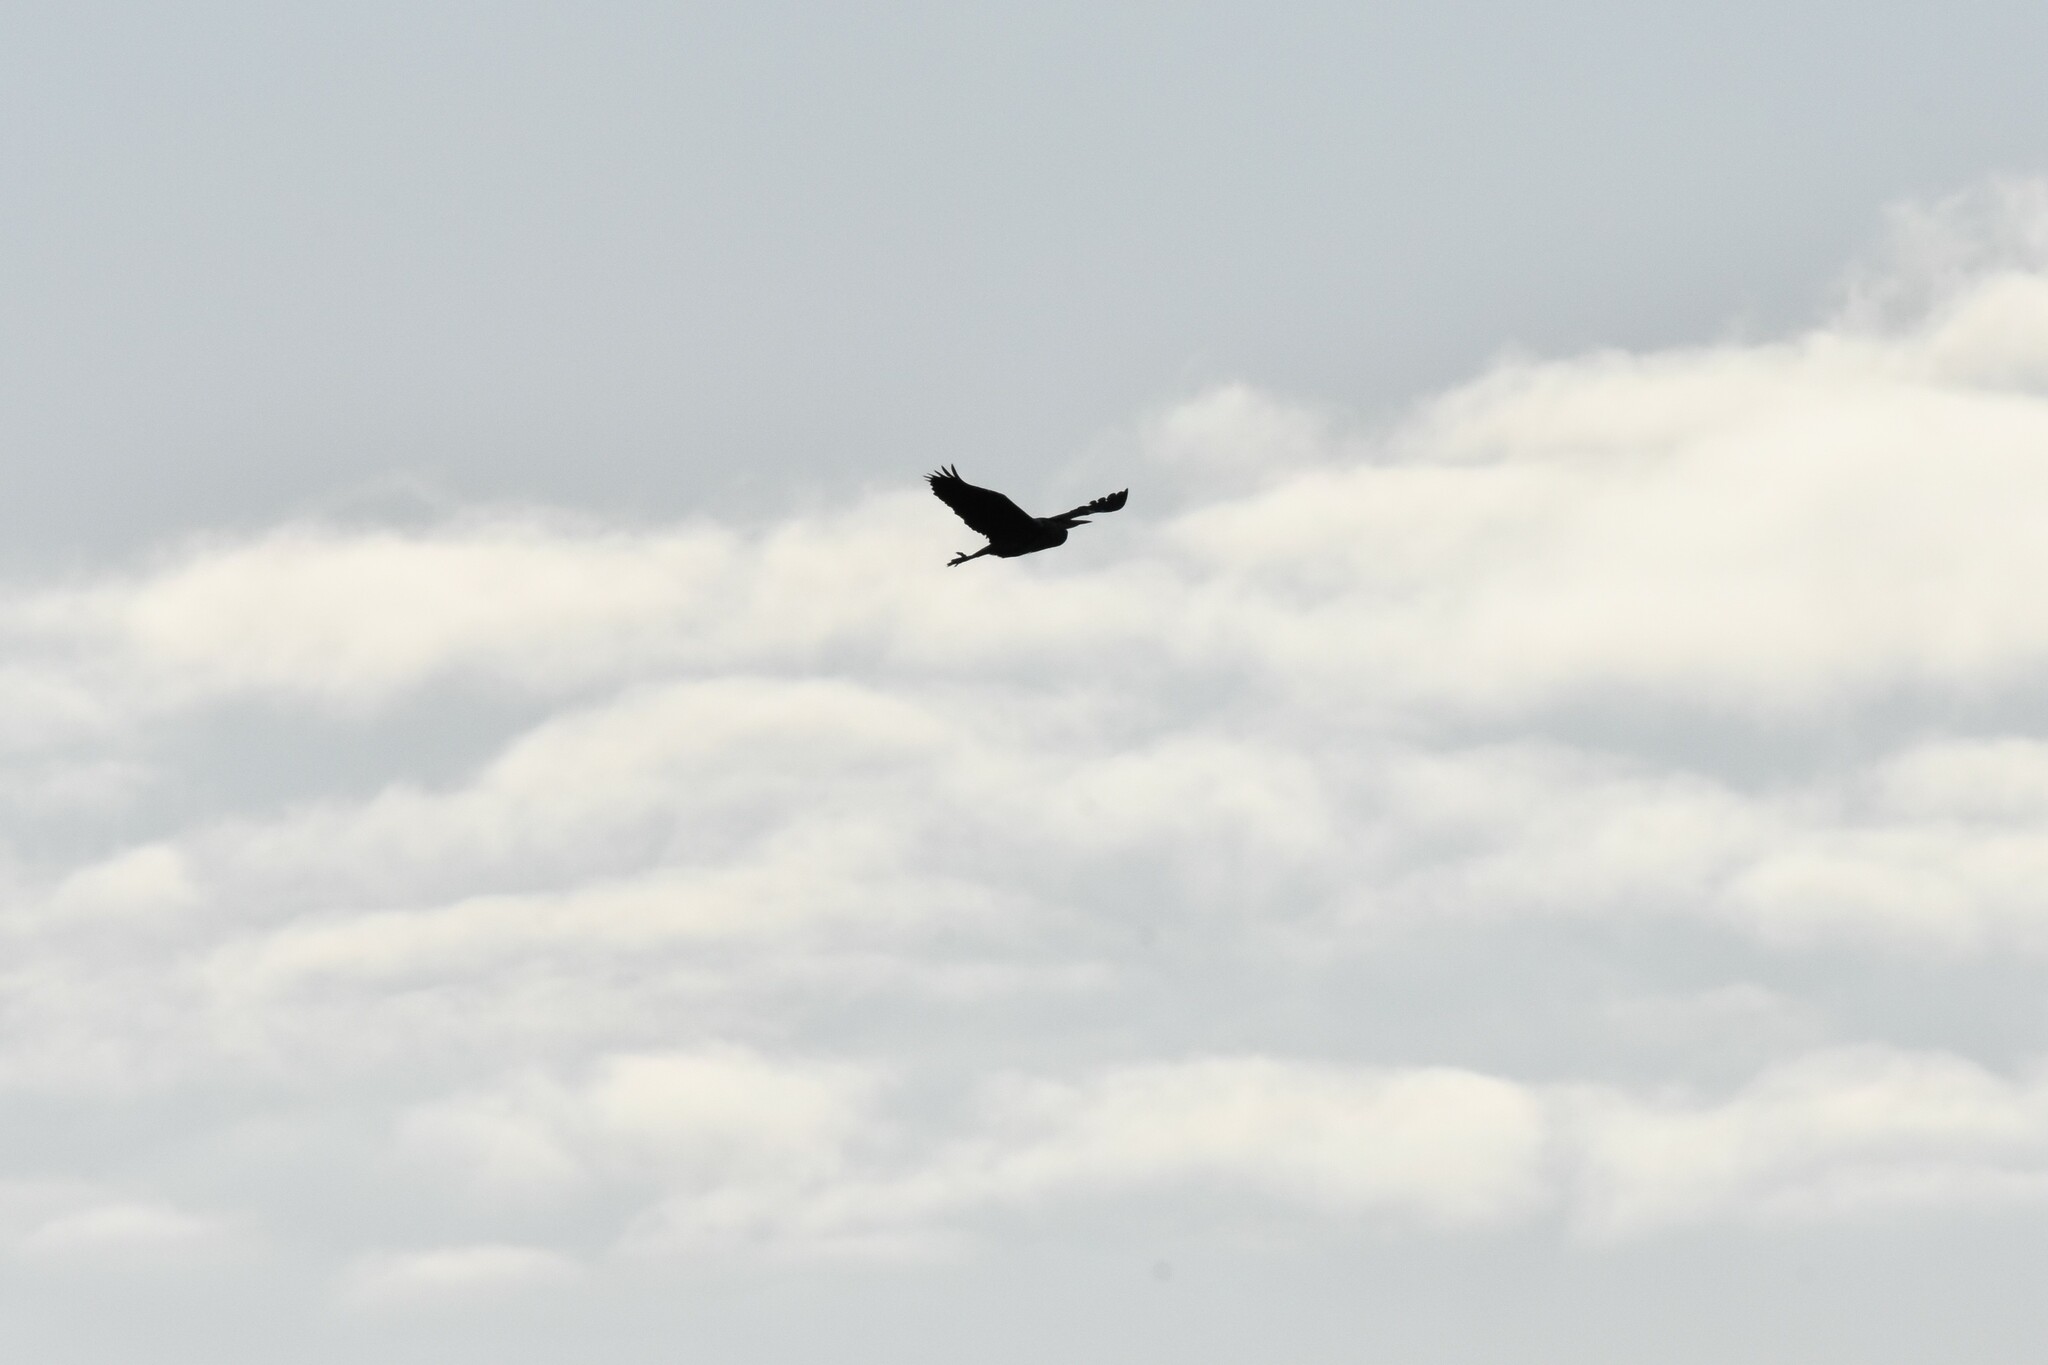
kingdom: Animalia
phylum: Chordata
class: Aves
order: Pelecaniformes
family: Ardeidae
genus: Ardea
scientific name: Ardea cinerea
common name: Grey heron
